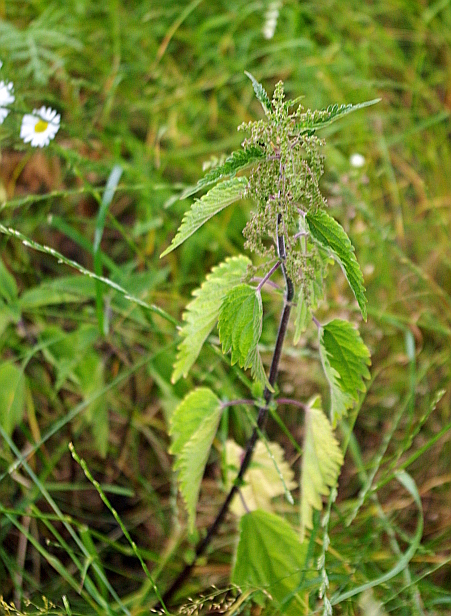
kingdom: Plantae
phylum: Tracheophyta
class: Magnoliopsida
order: Rosales
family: Urticaceae
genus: Urtica
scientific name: Urtica dioica
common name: Common nettle
